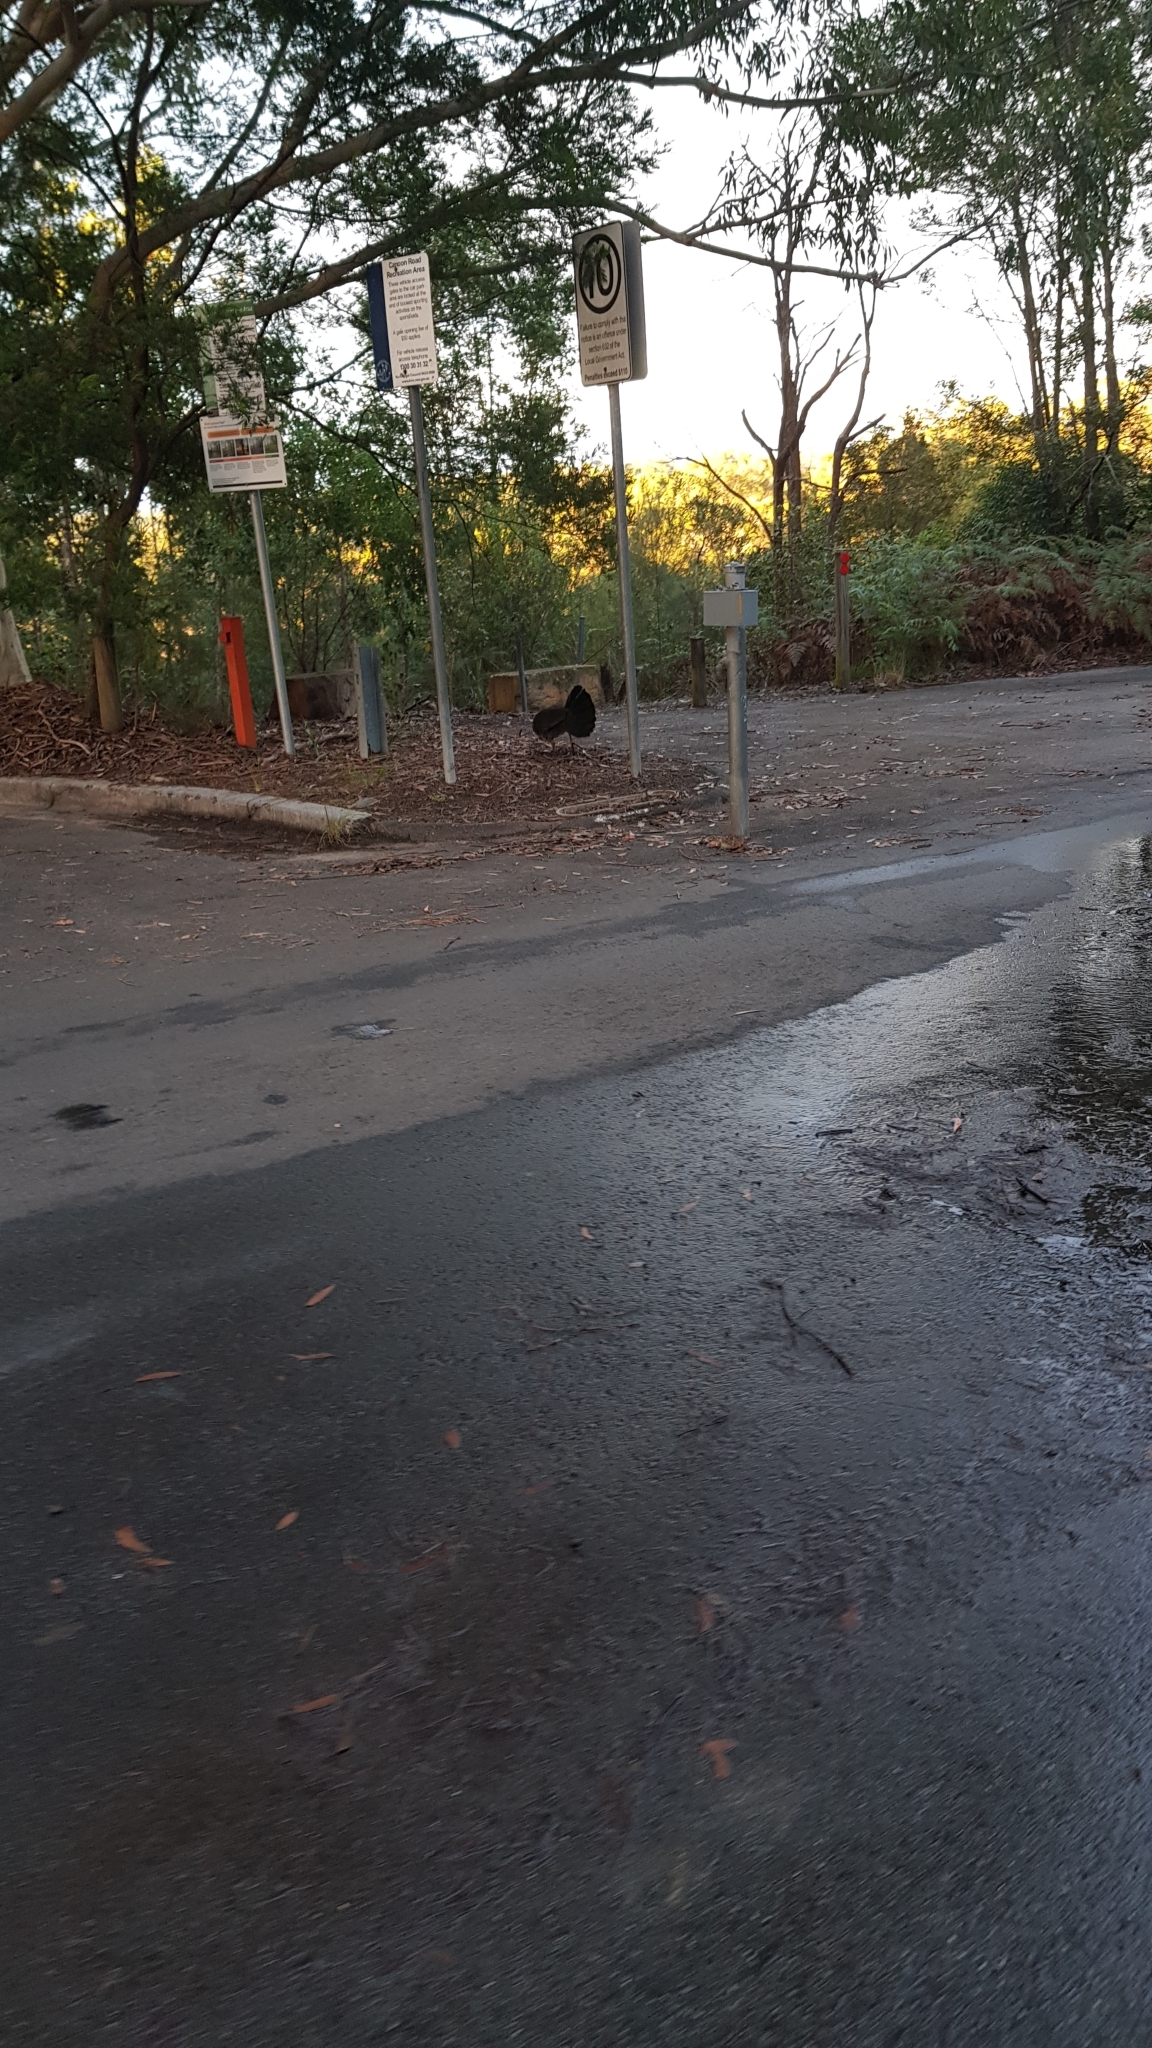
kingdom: Animalia
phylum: Chordata
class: Aves
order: Galliformes
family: Megapodiidae
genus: Alectura
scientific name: Alectura lathami
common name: Australian brushturkey
